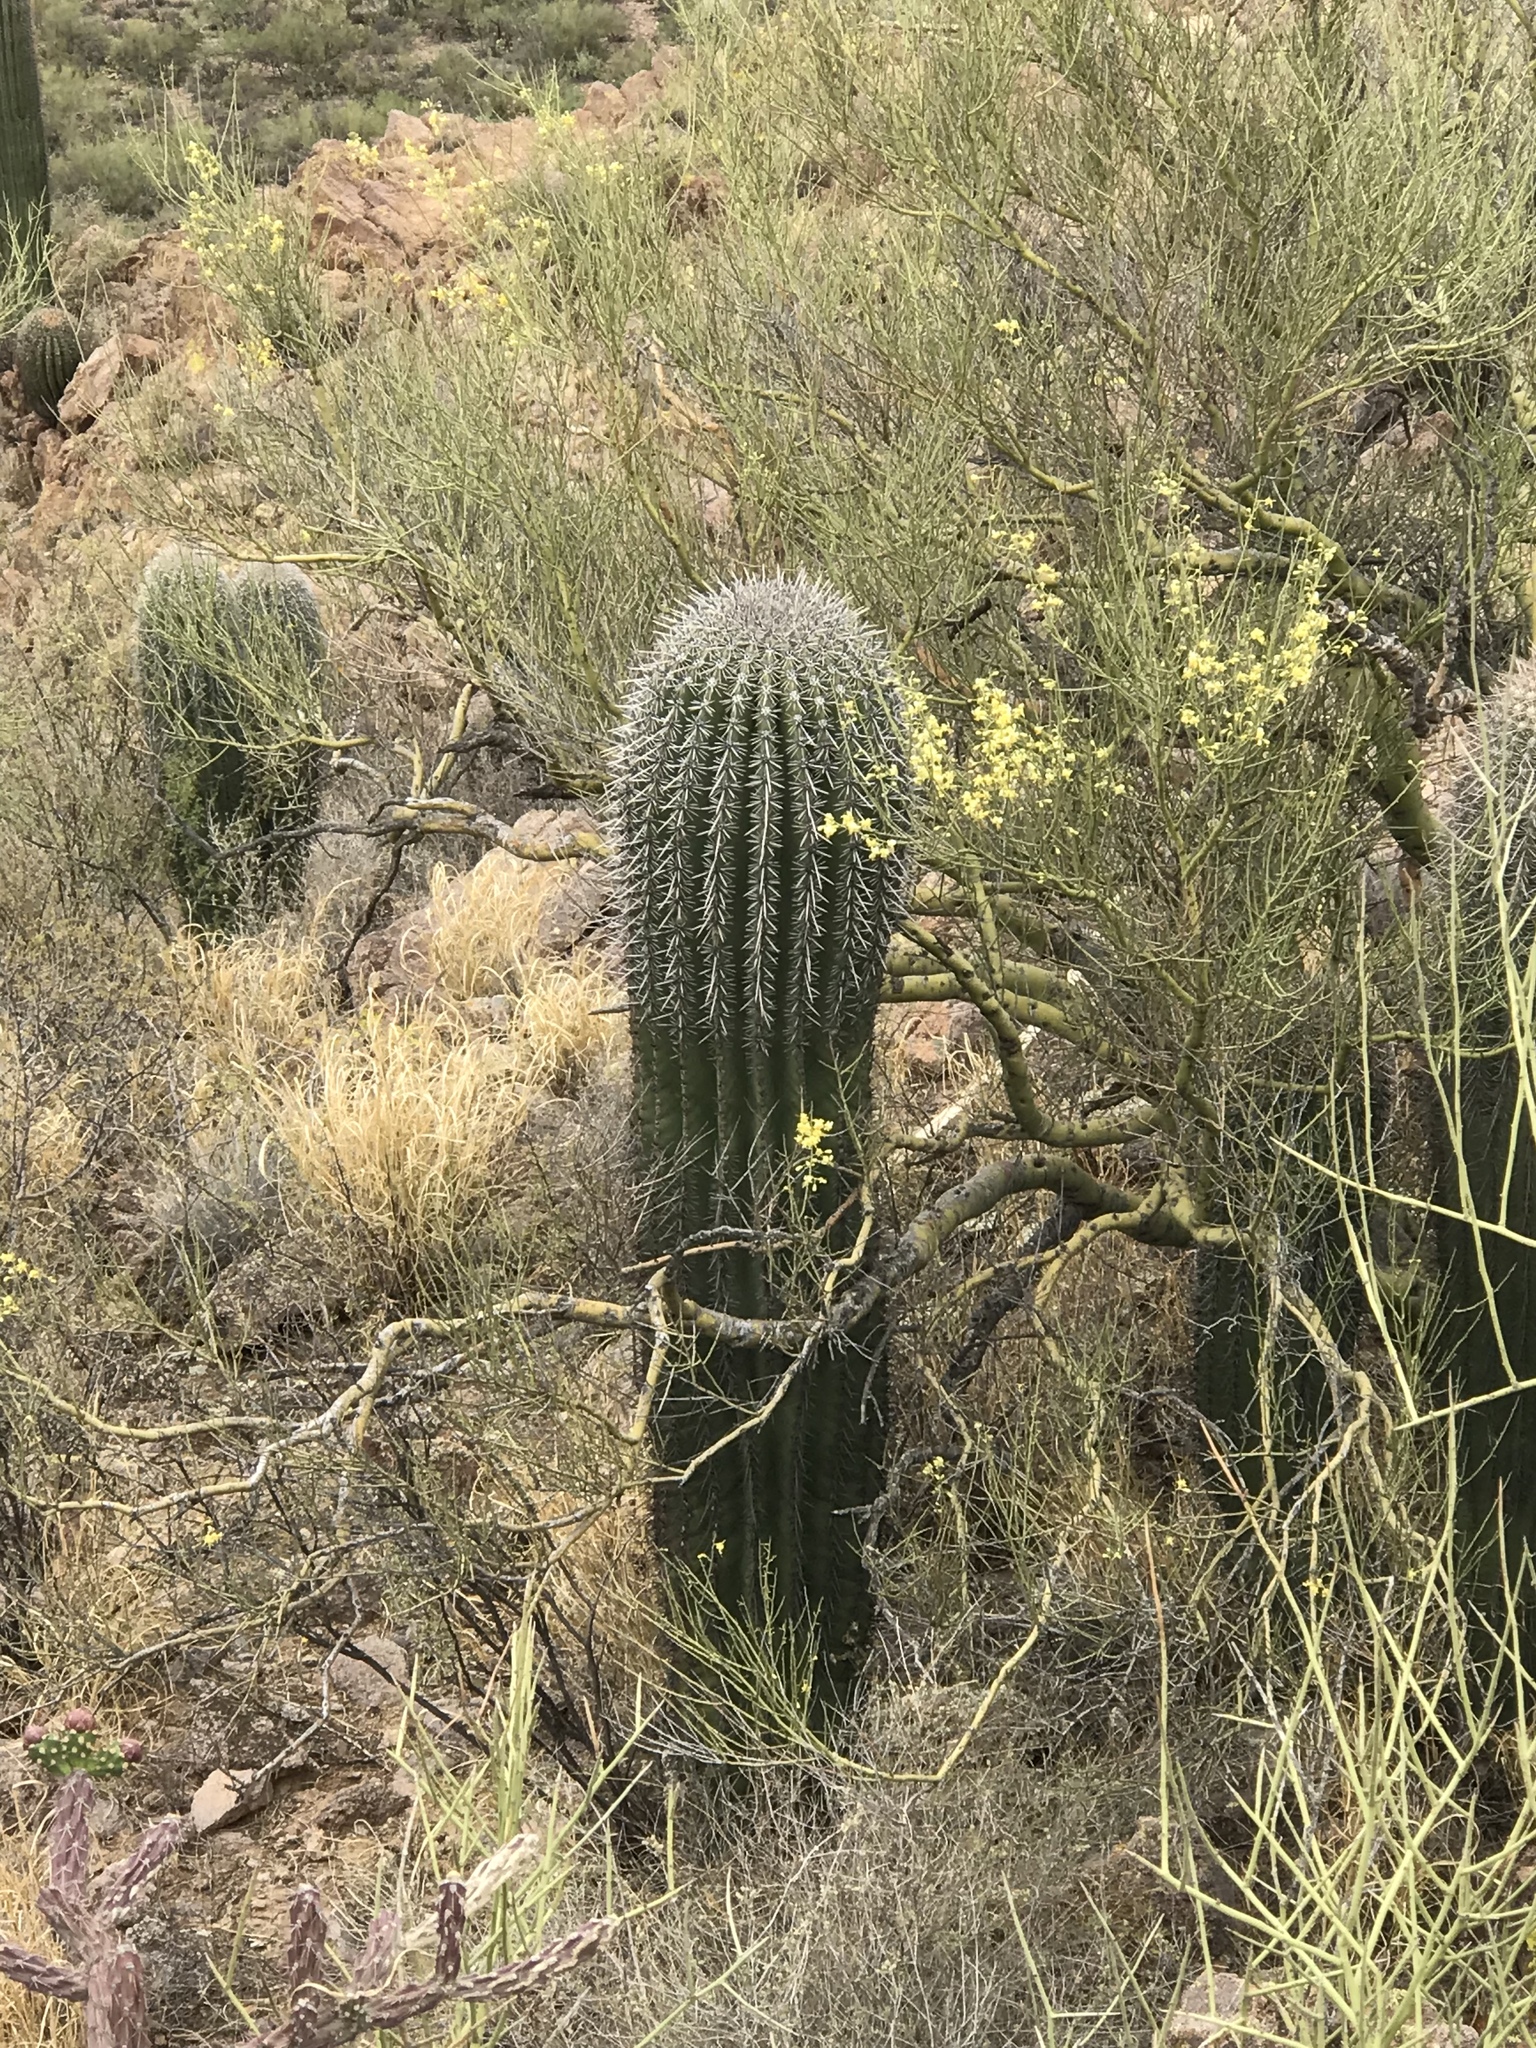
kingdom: Plantae
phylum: Tracheophyta
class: Magnoliopsida
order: Caryophyllales
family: Cactaceae
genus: Carnegiea
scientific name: Carnegiea gigantea
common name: Saguaro
